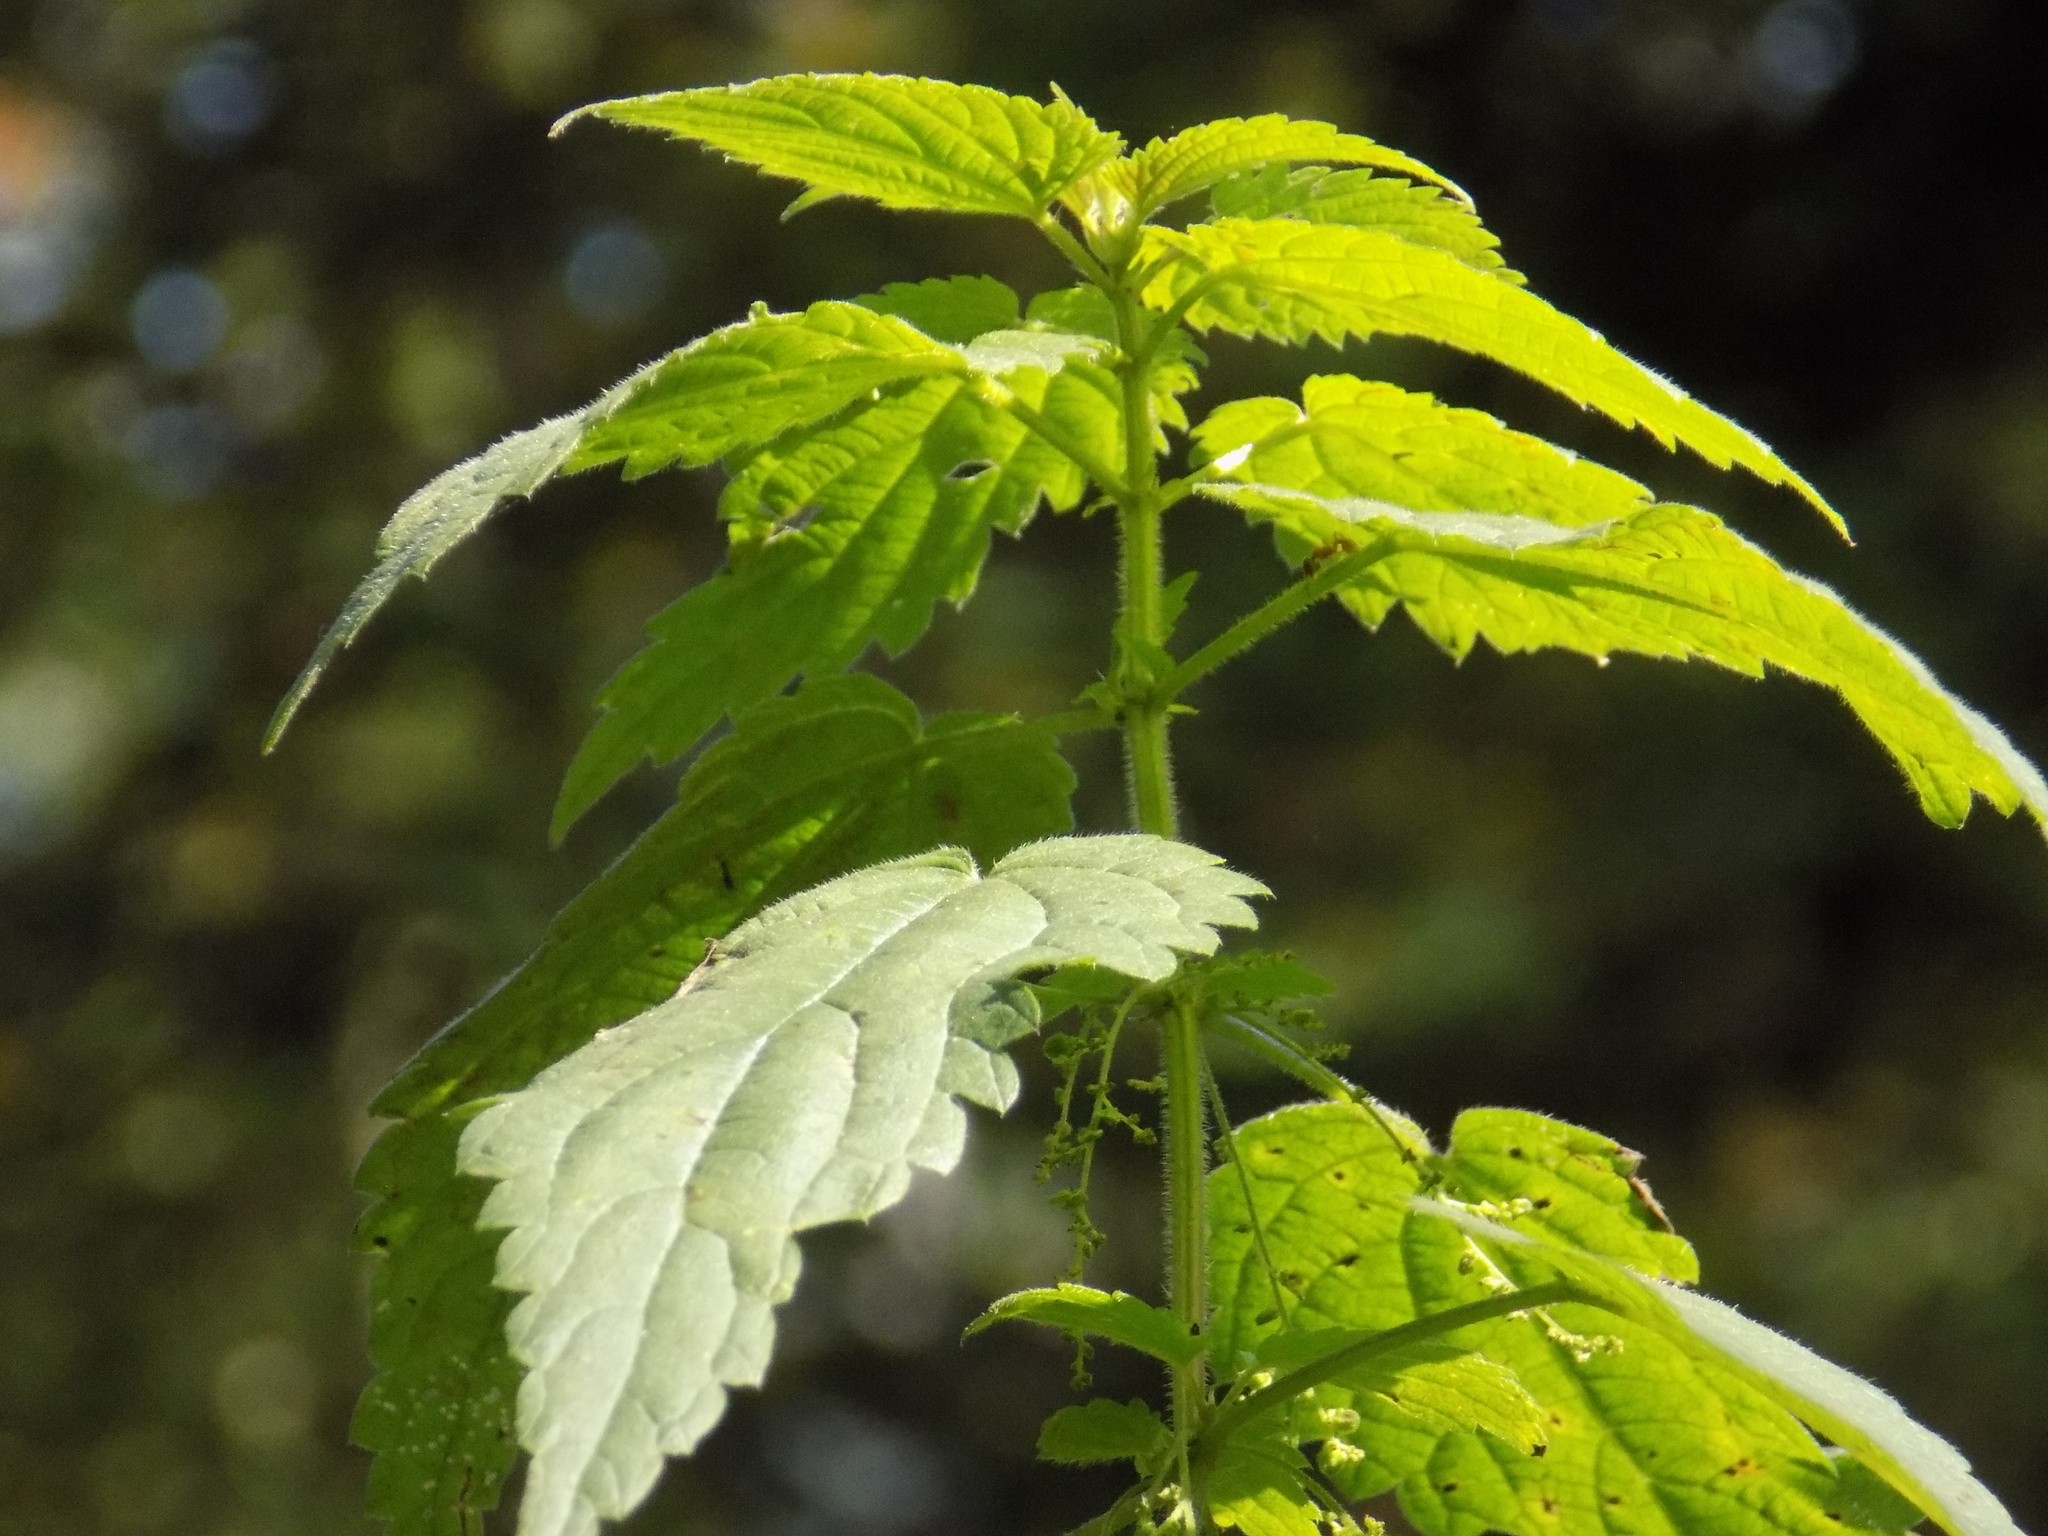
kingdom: Plantae
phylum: Tracheophyta
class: Magnoliopsida
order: Rosales
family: Urticaceae
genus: Urtica
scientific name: Urtica dioica
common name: Common nettle
